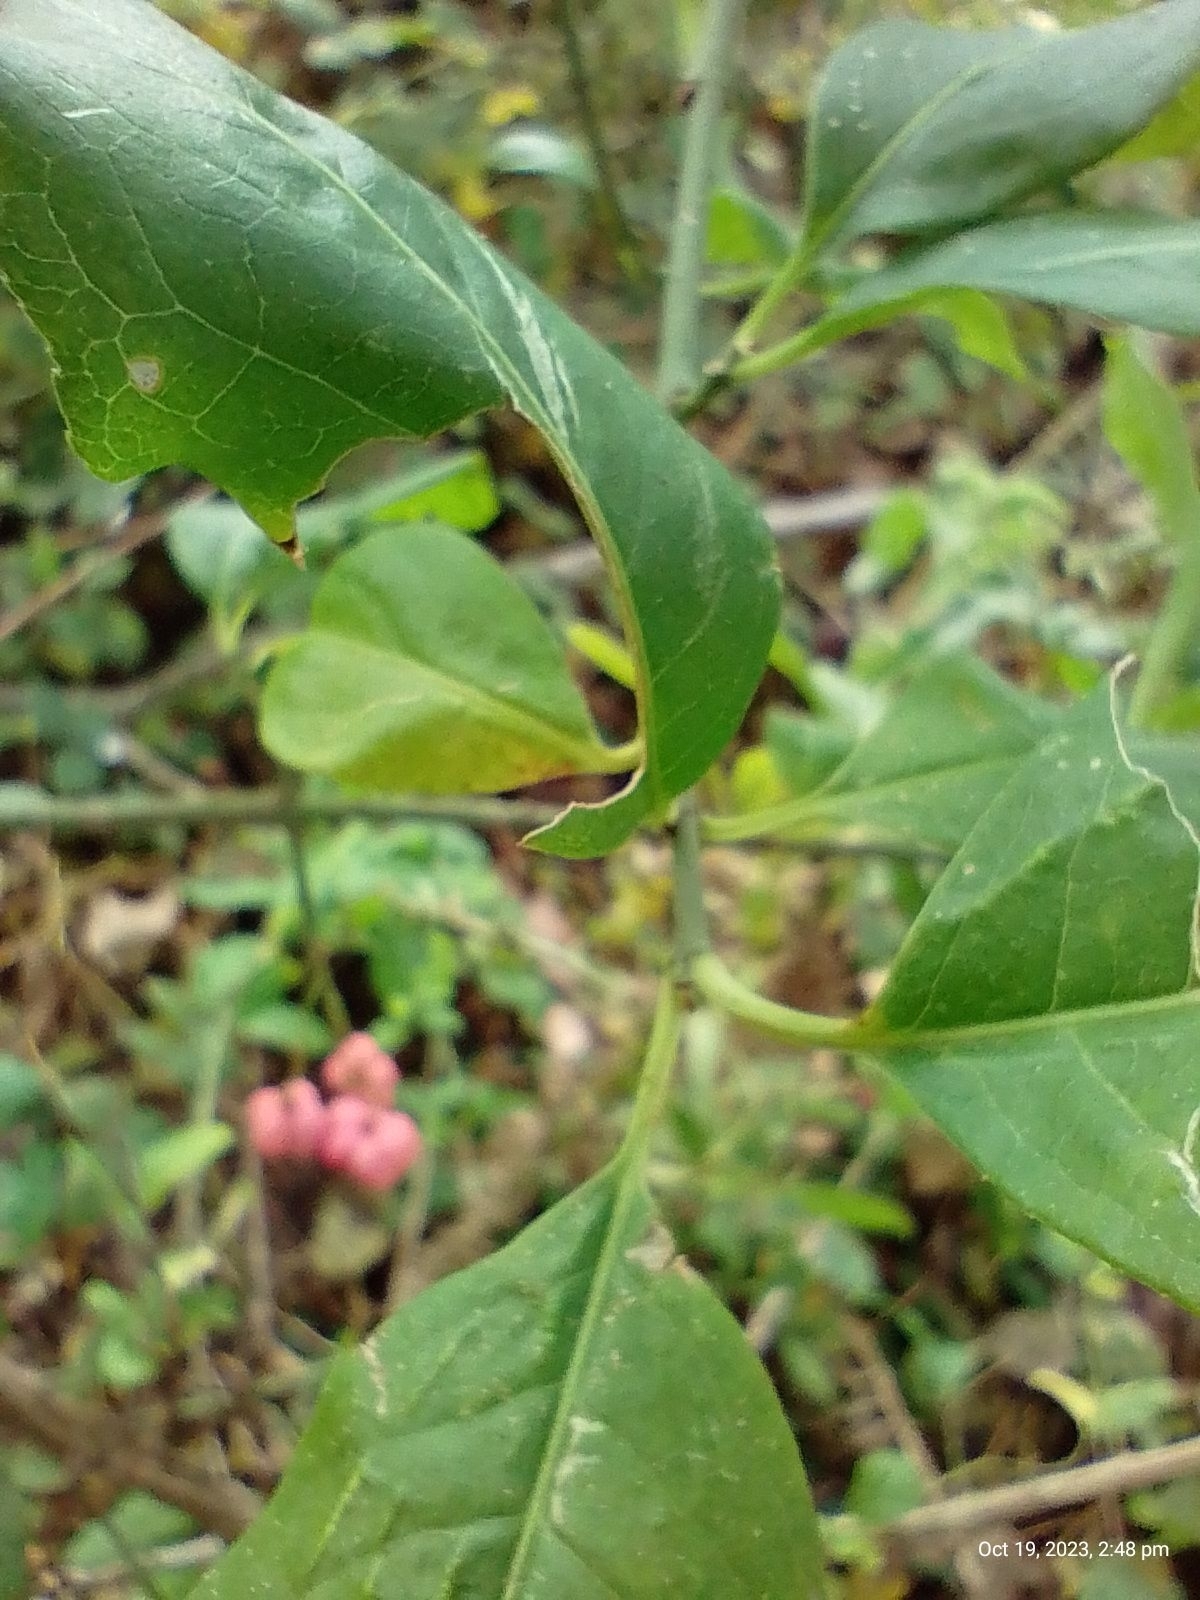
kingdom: Plantae
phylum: Tracheophyta
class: Magnoliopsida
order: Celastrales
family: Celastraceae
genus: Euonymus
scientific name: Euonymus europaeus
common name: Spindle
